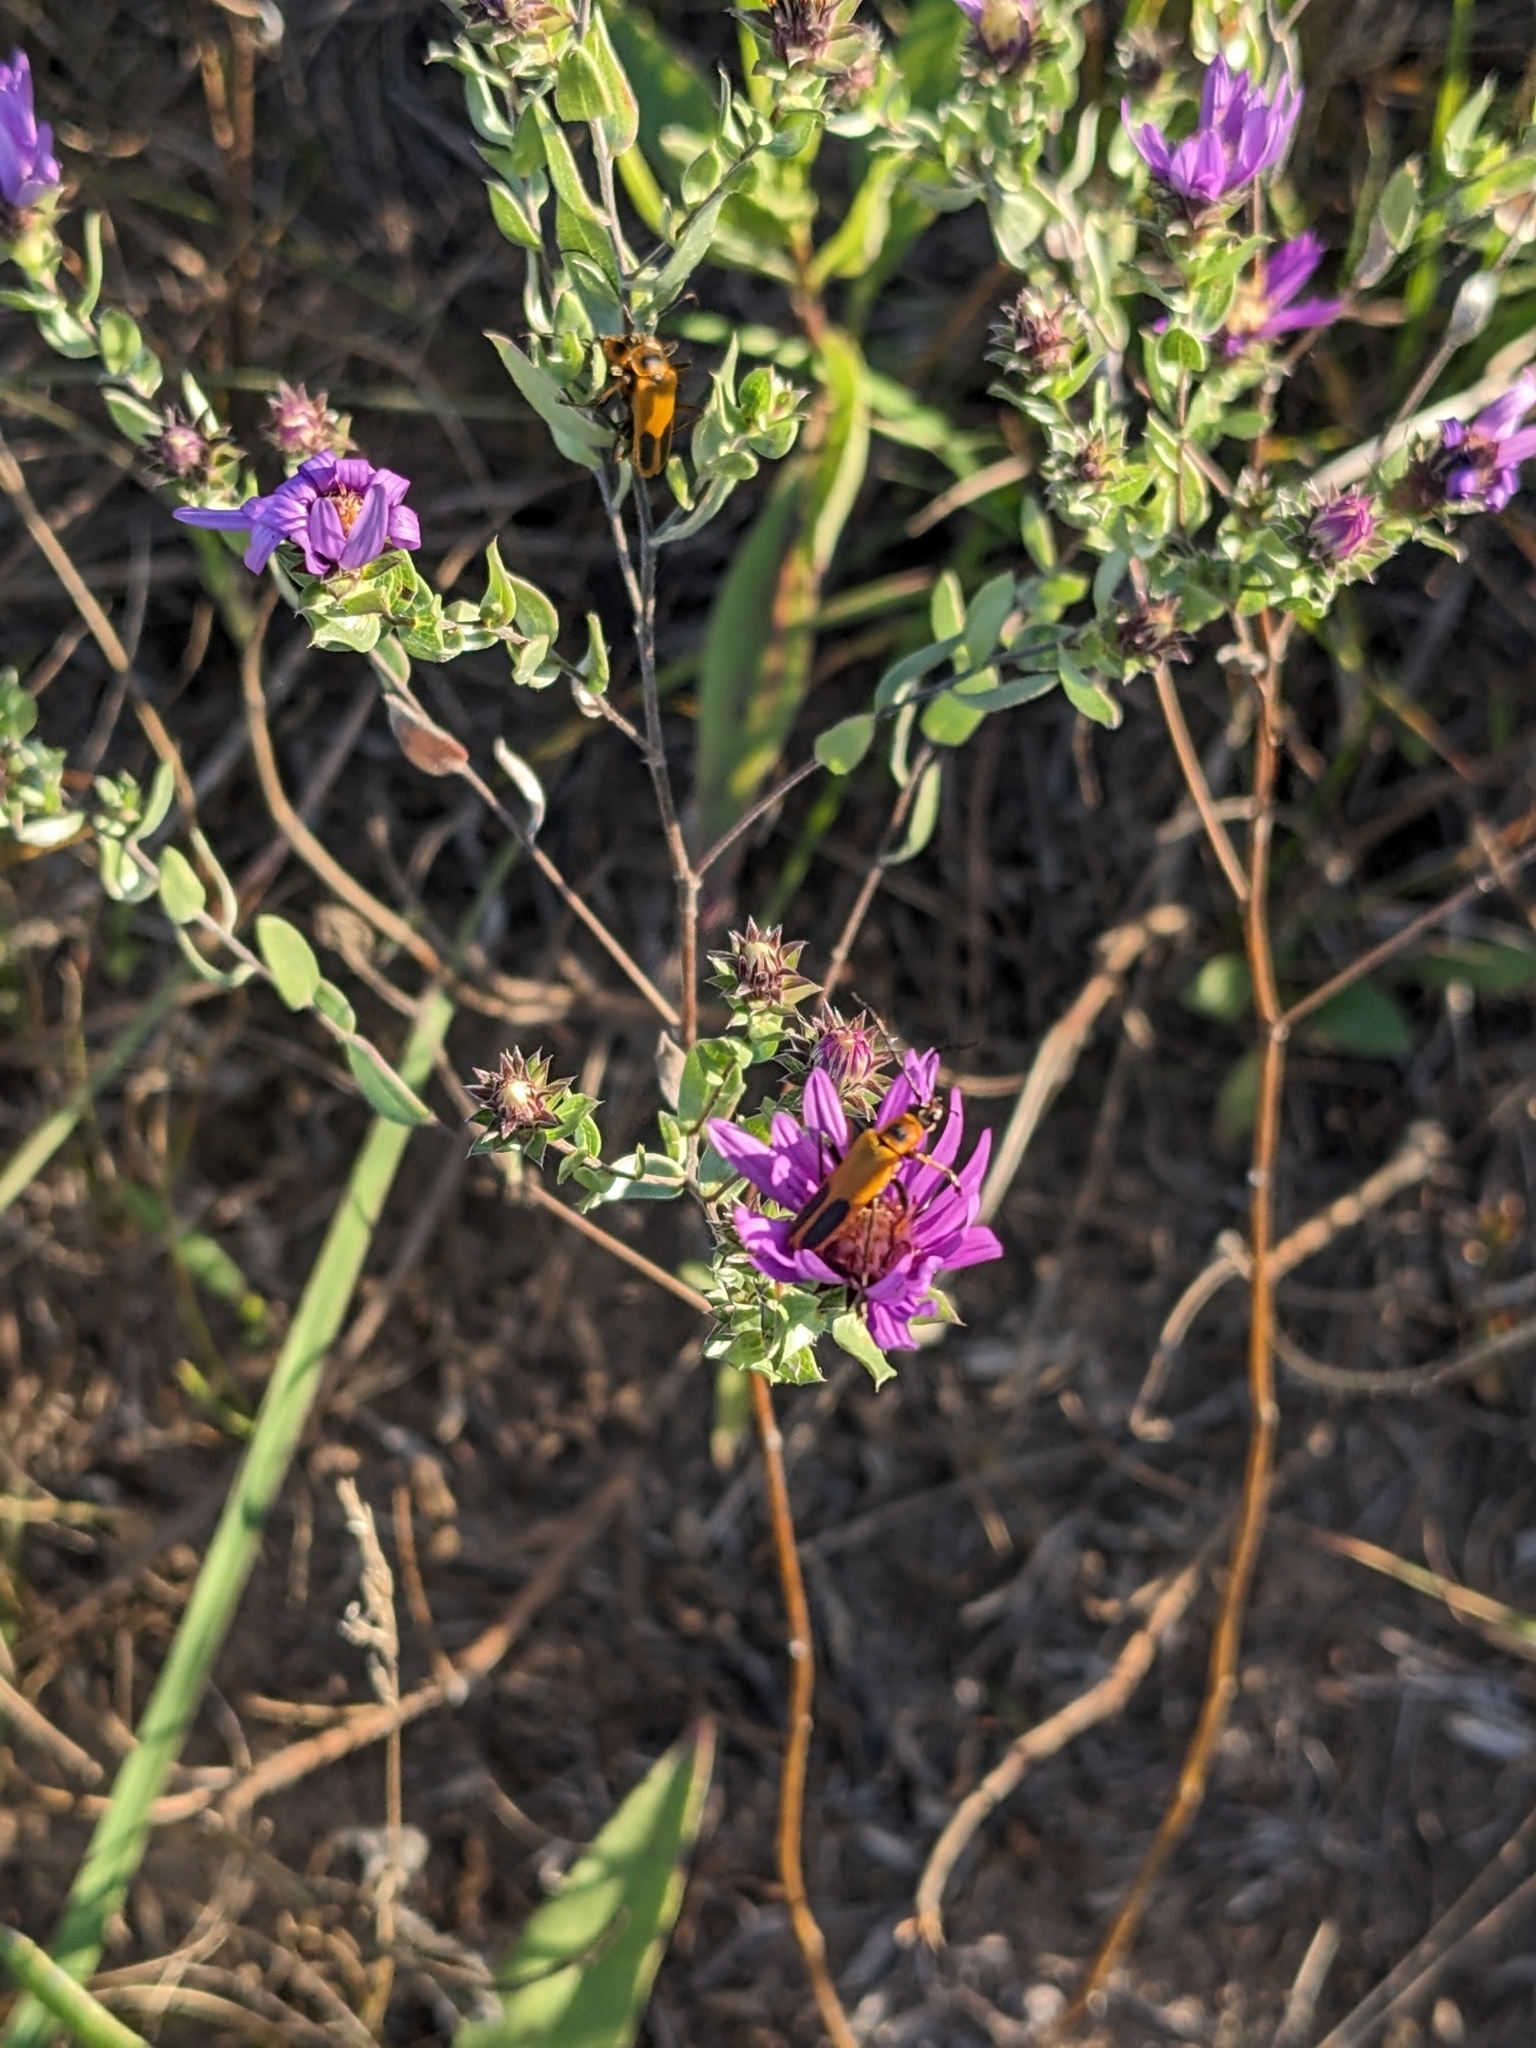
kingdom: Plantae
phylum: Tracheophyta
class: Magnoliopsida
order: Asterales
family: Asteraceae
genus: Symphyotrichum
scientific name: Symphyotrichum sericeum
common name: Silky aster
